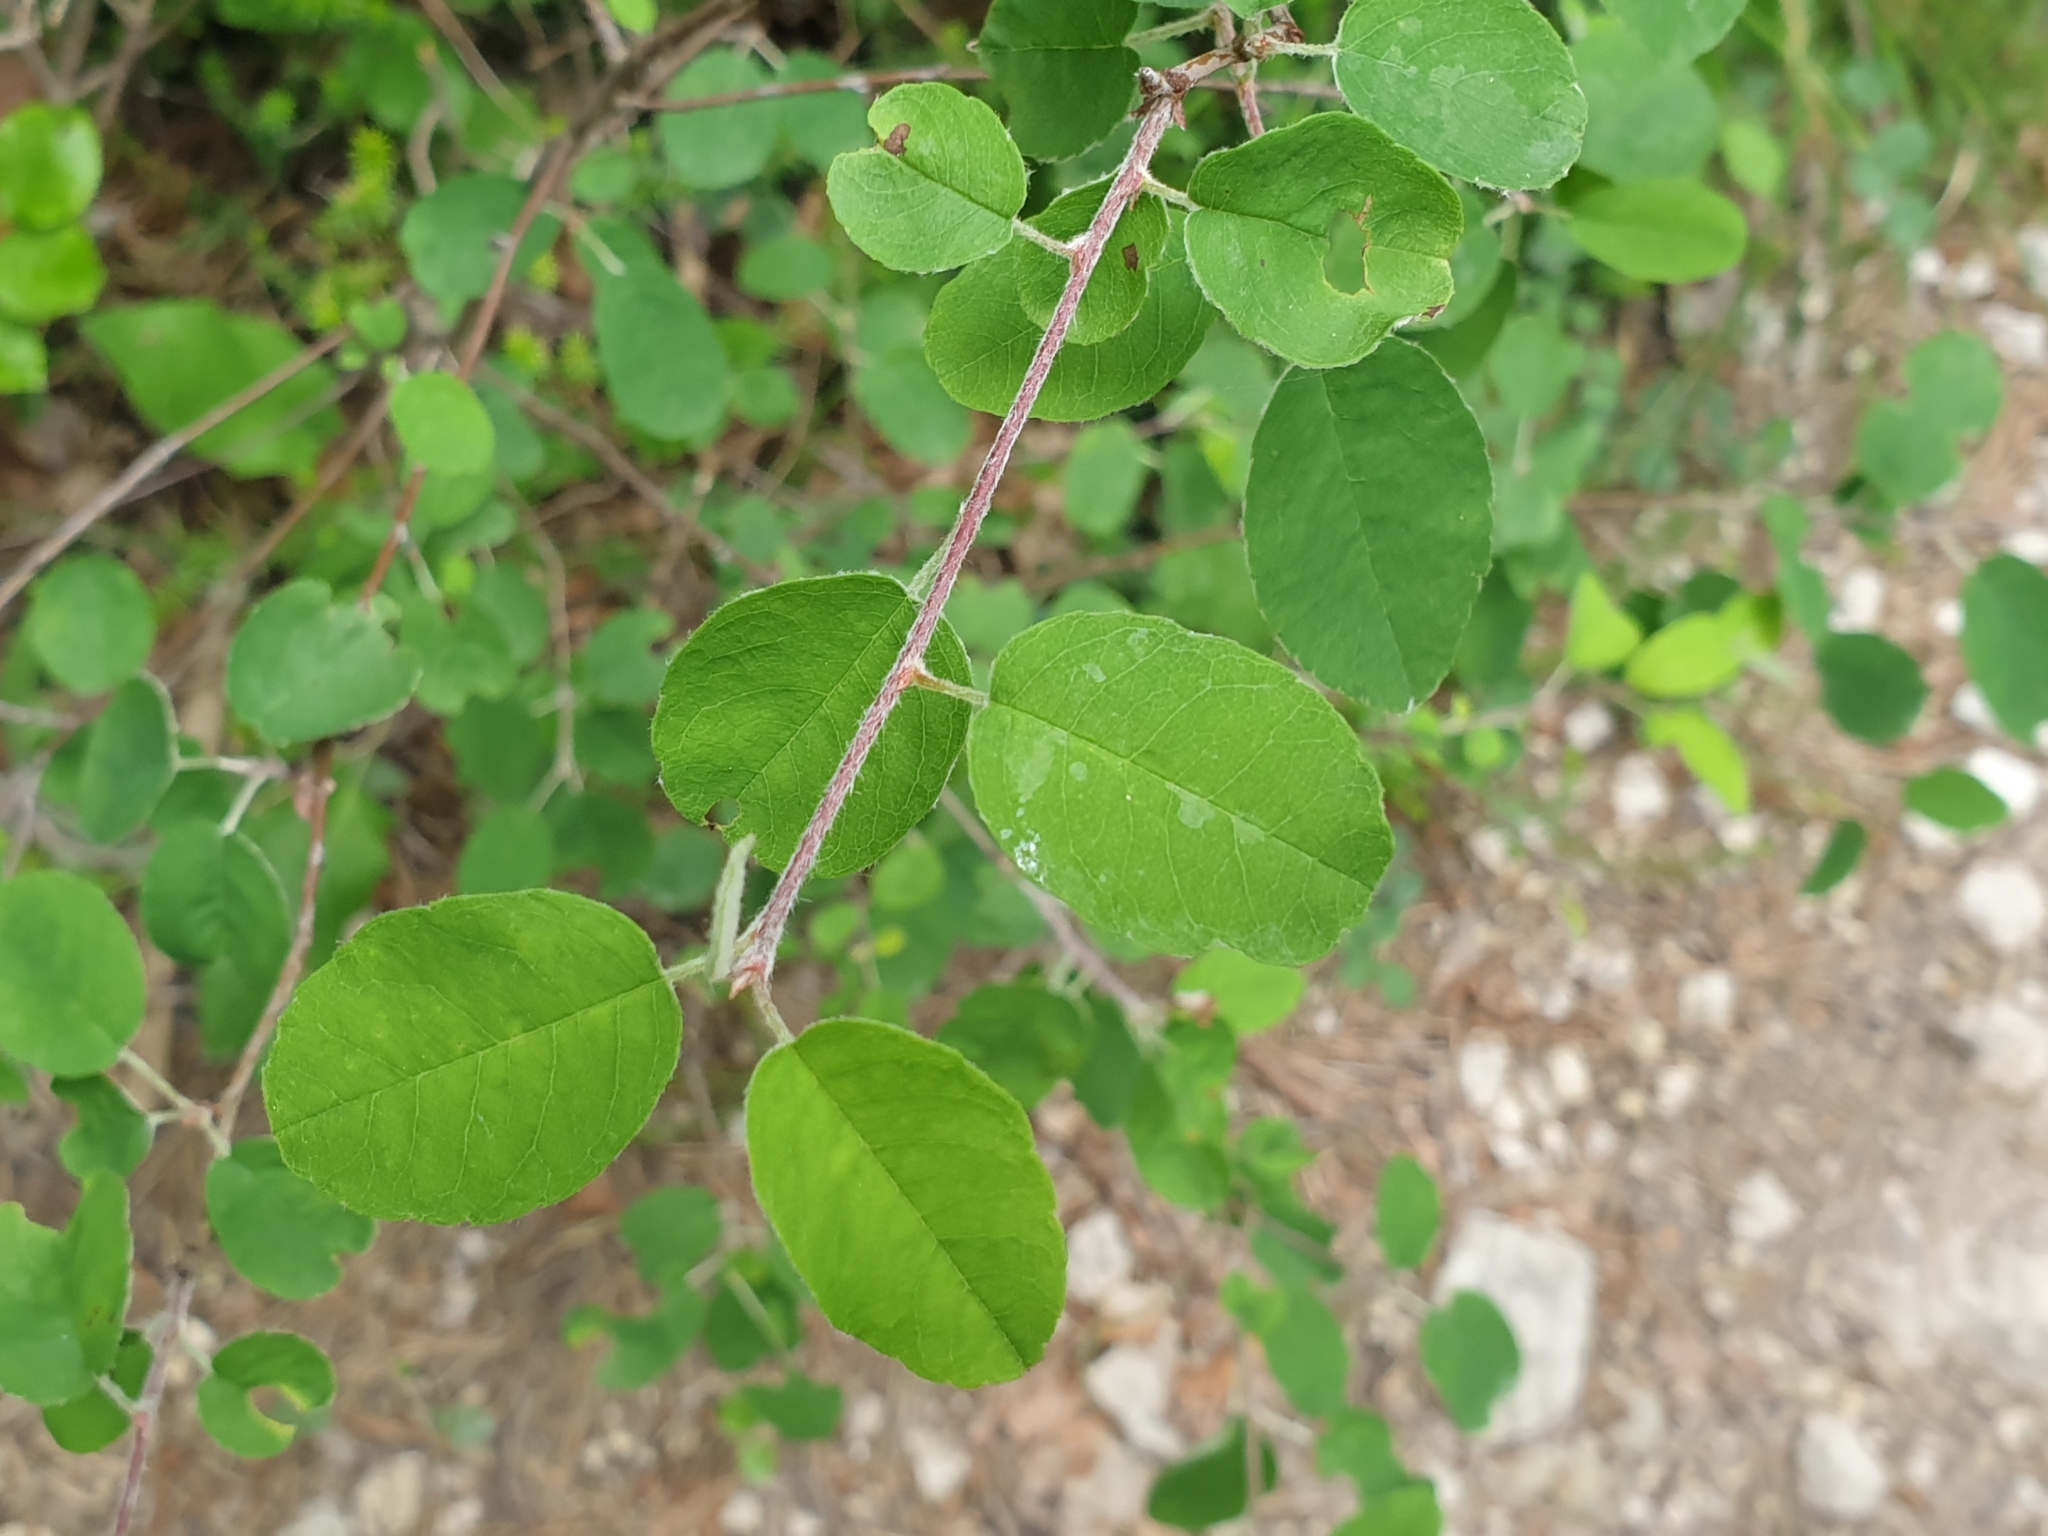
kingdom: Plantae
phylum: Tracheophyta
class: Magnoliopsida
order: Rosales
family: Rosaceae
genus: Amelanchier
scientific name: Amelanchier ovalis
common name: Serviceberry
